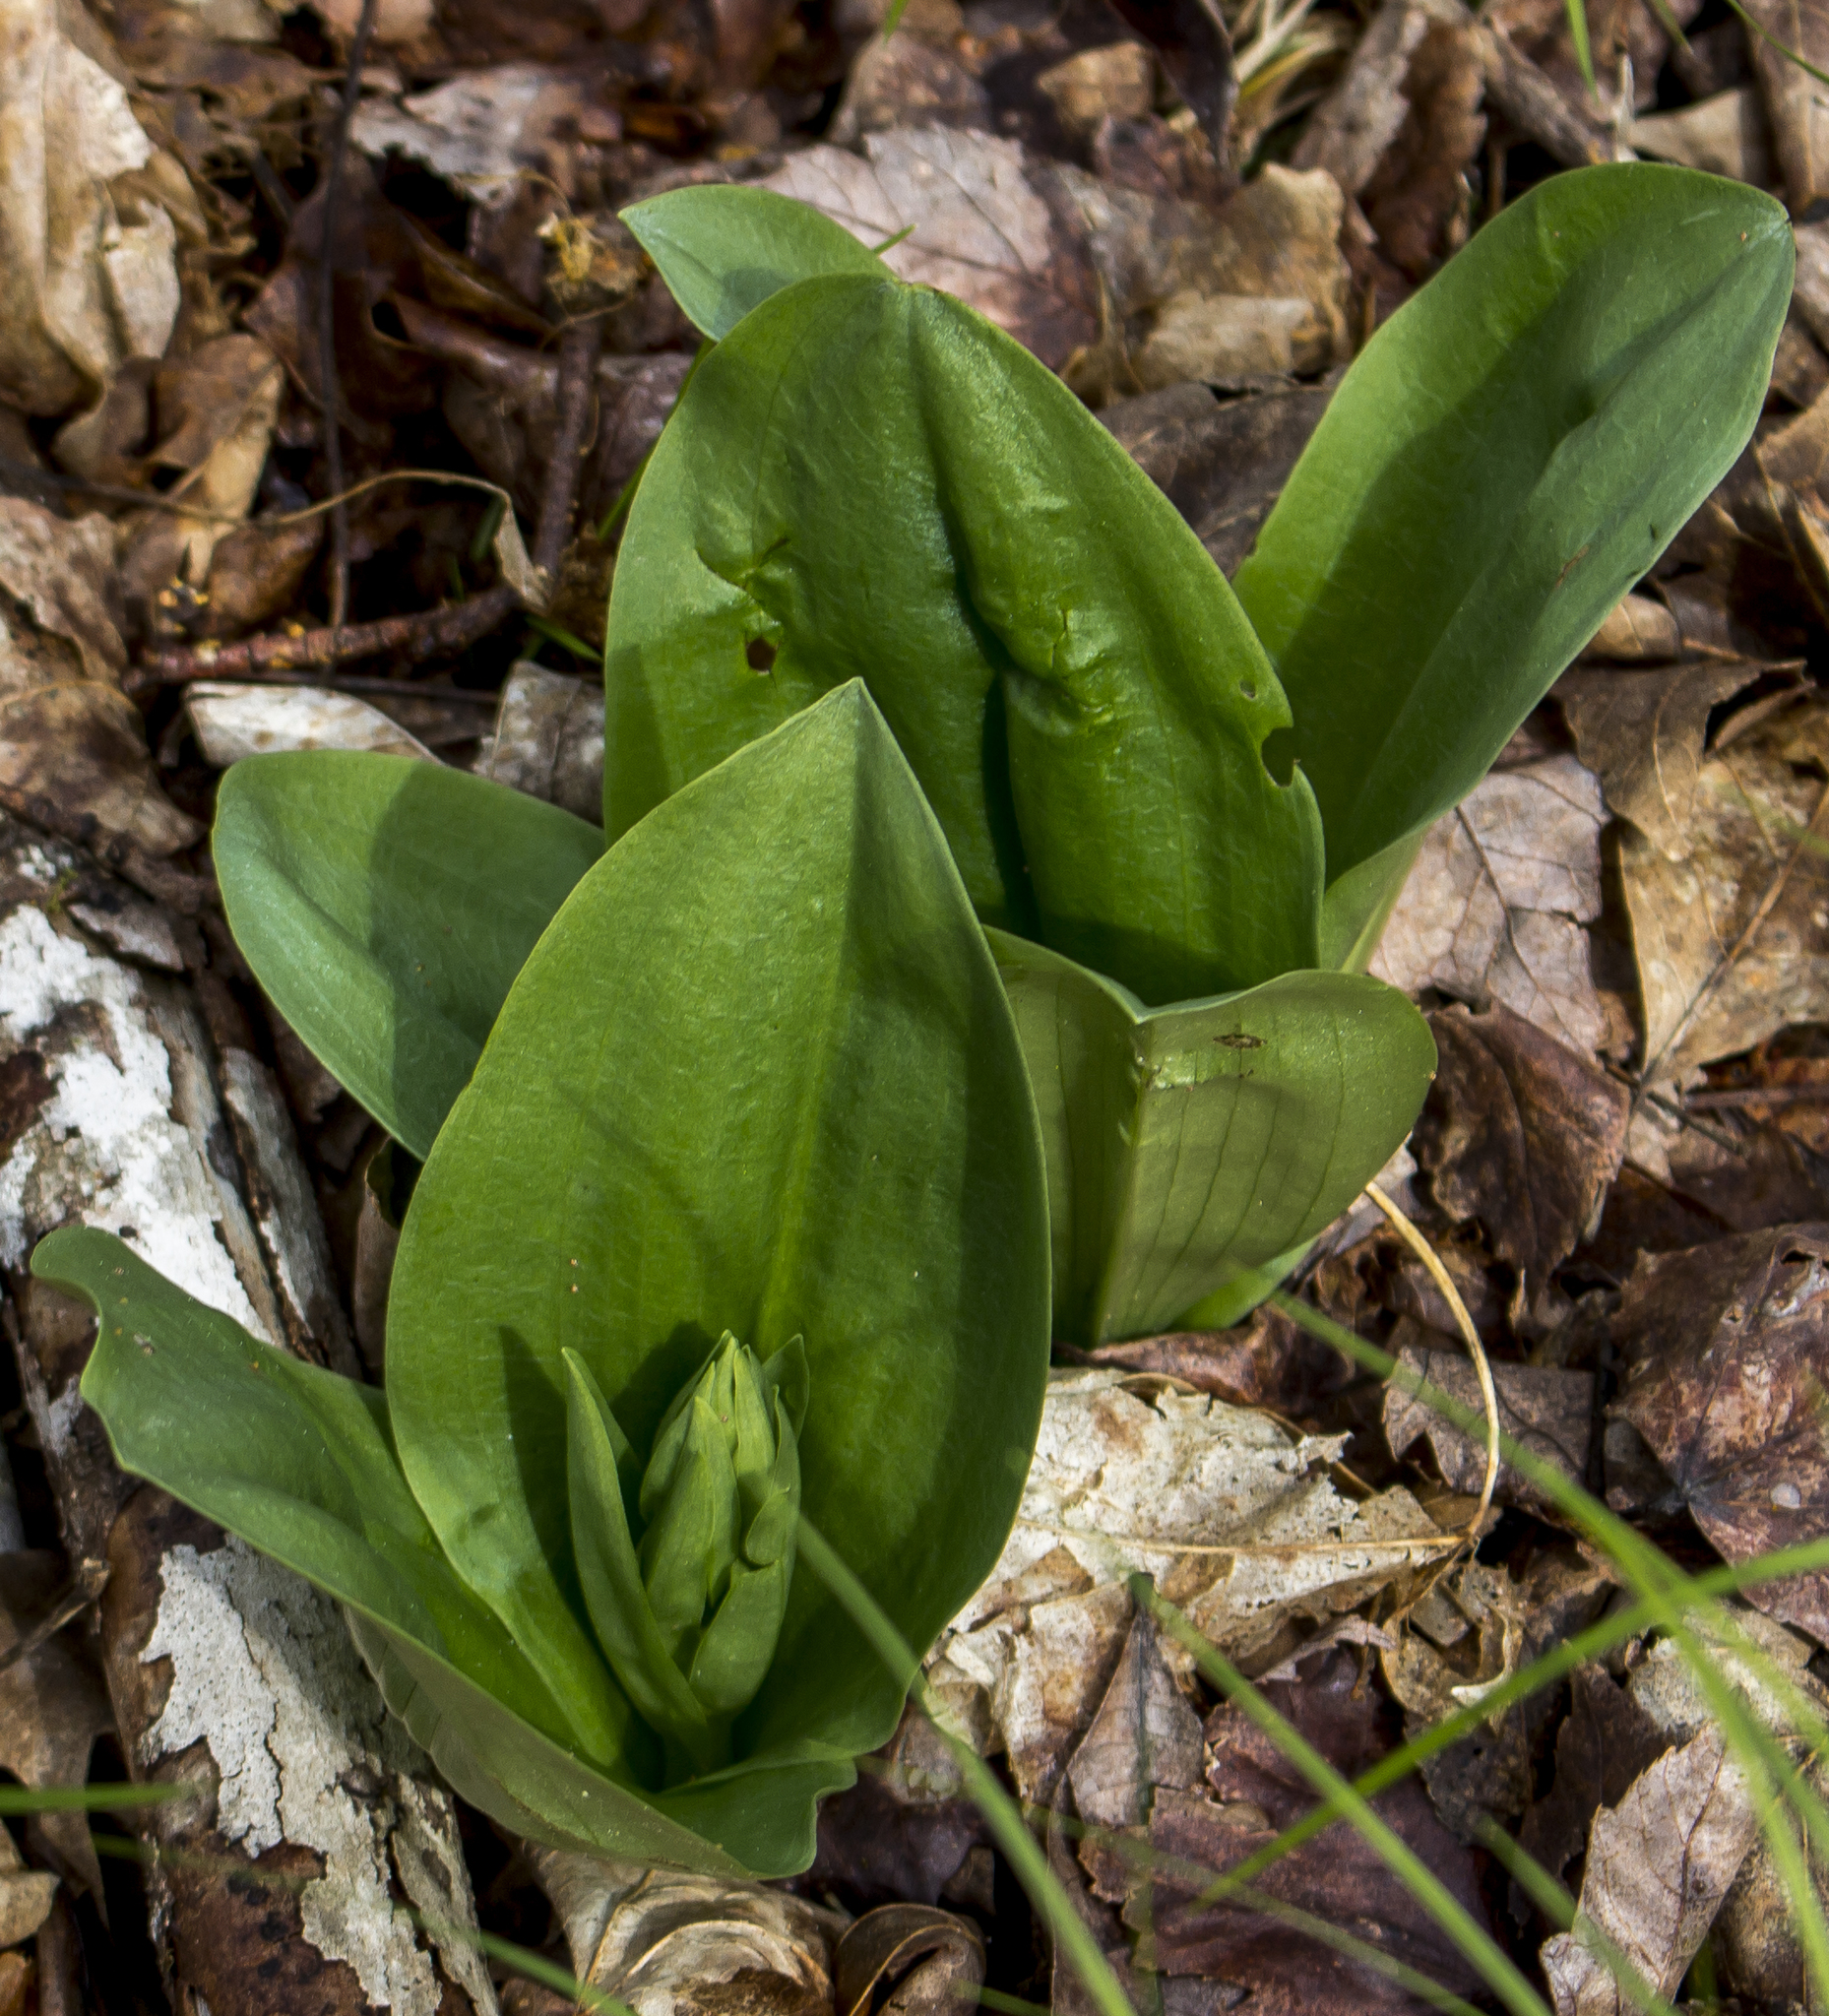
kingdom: Plantae
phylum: Tracheophyta
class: Liliopsida
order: Asparagales
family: Orchidaceae
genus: Galearis
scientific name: Galearis spectabilis
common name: Purple-hooded orchis
